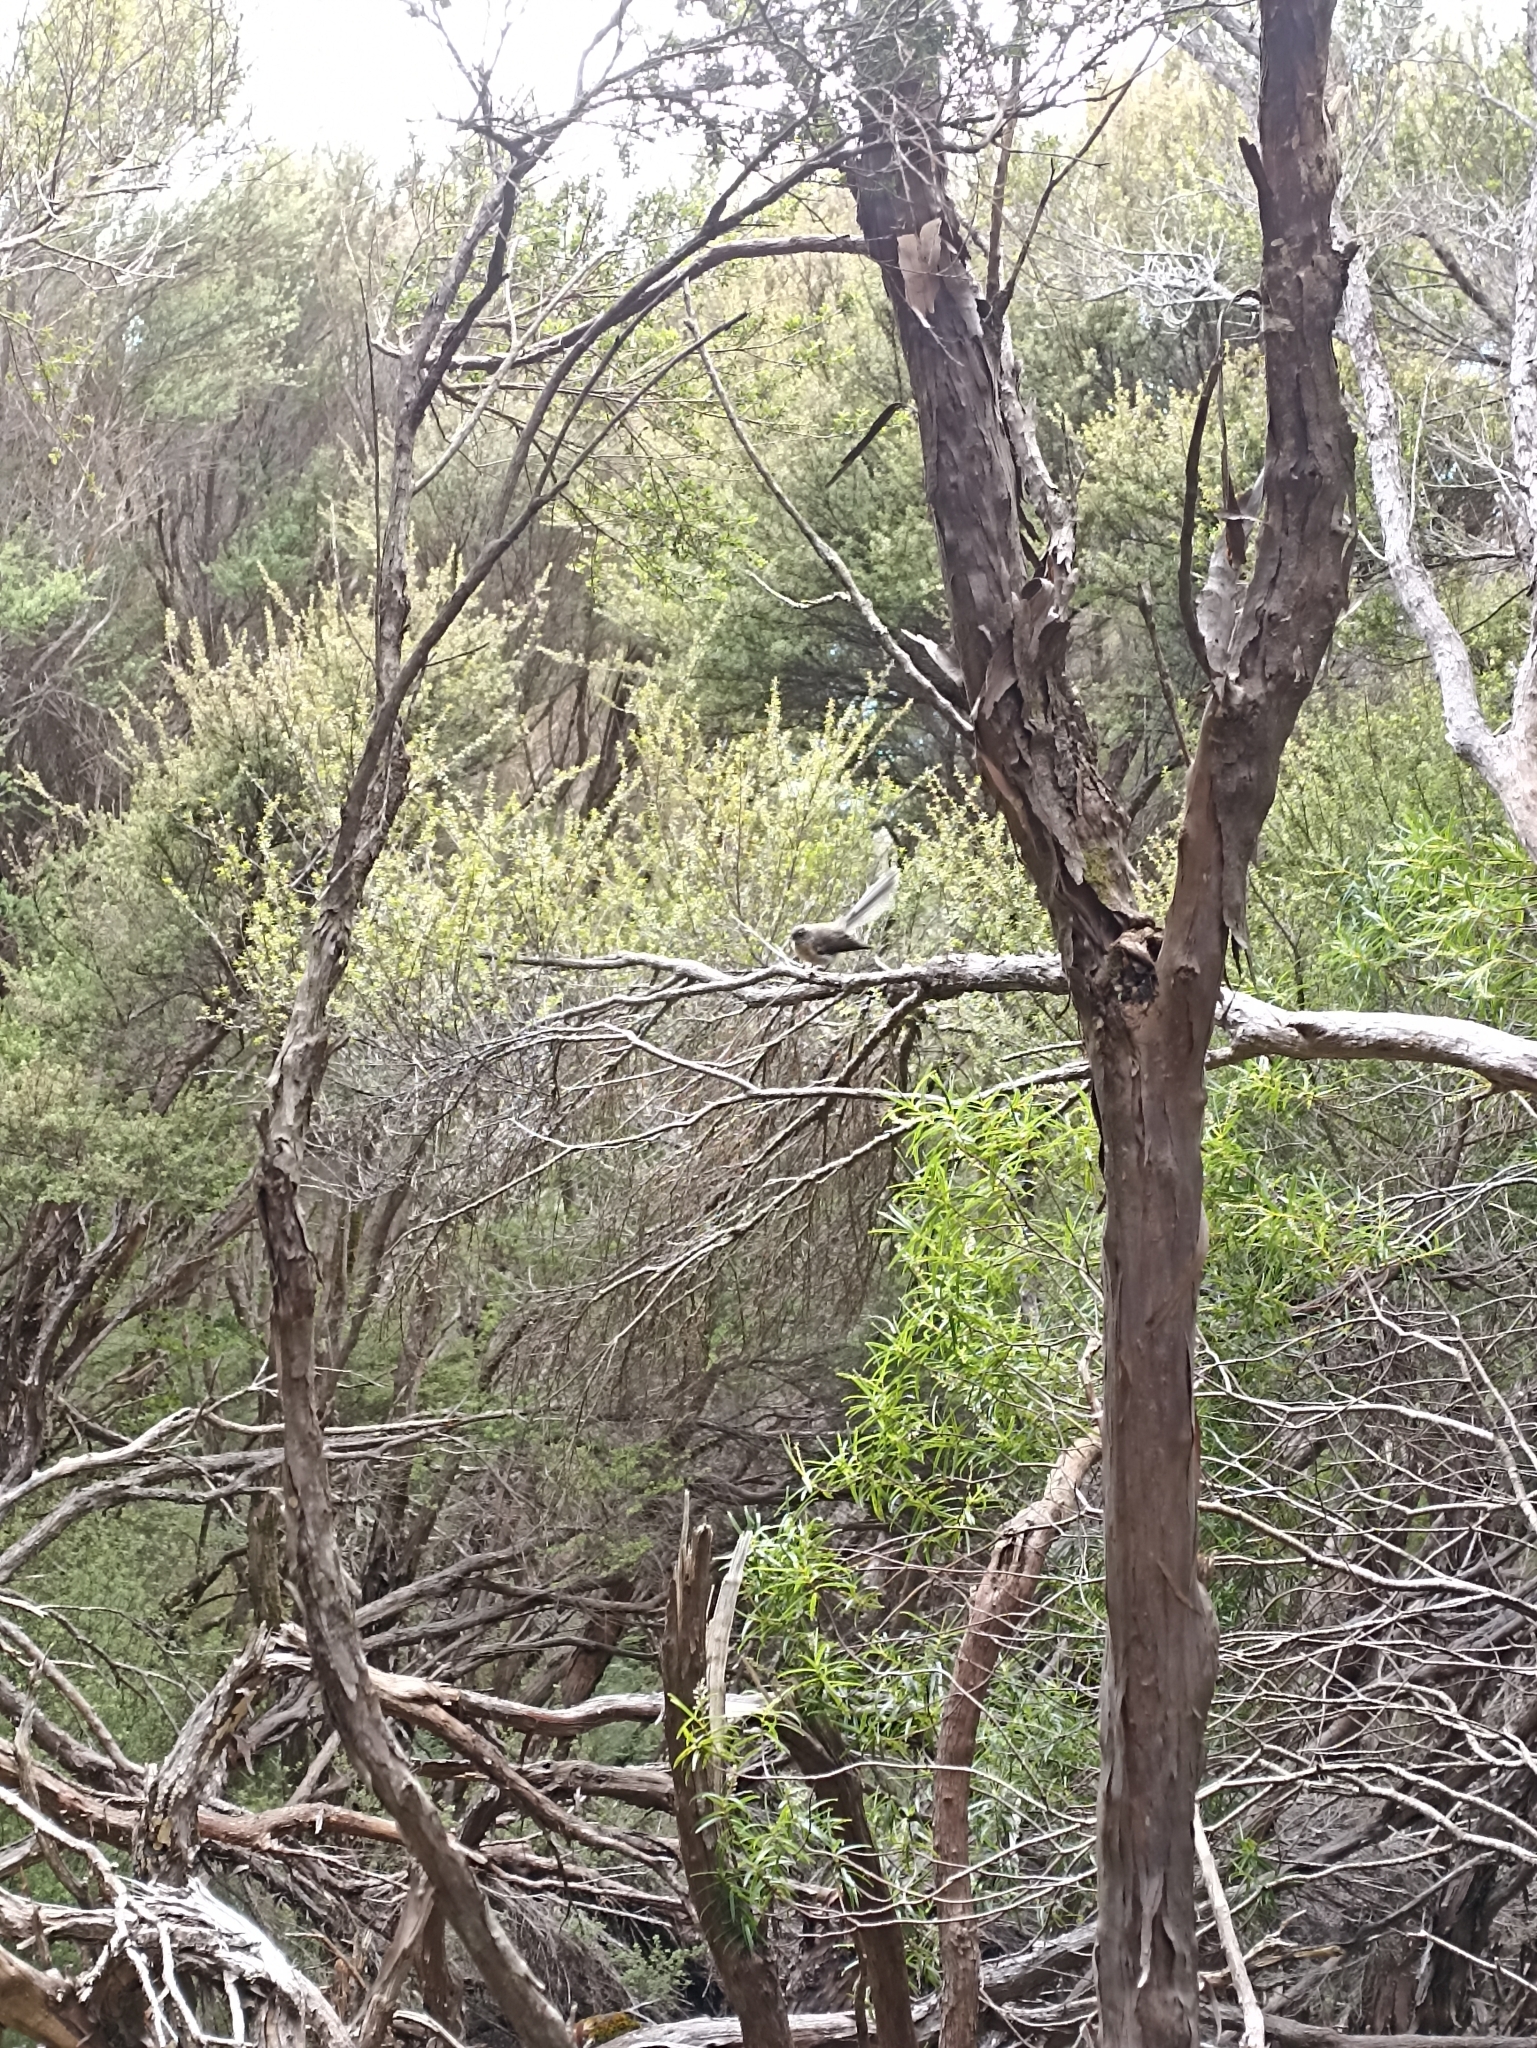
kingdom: Animalia
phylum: Chordata
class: Aves
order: Passeriformes
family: Rhipiduridae
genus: Rhipidura
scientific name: Rhipidura fuliginosa
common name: New zealand fantail
